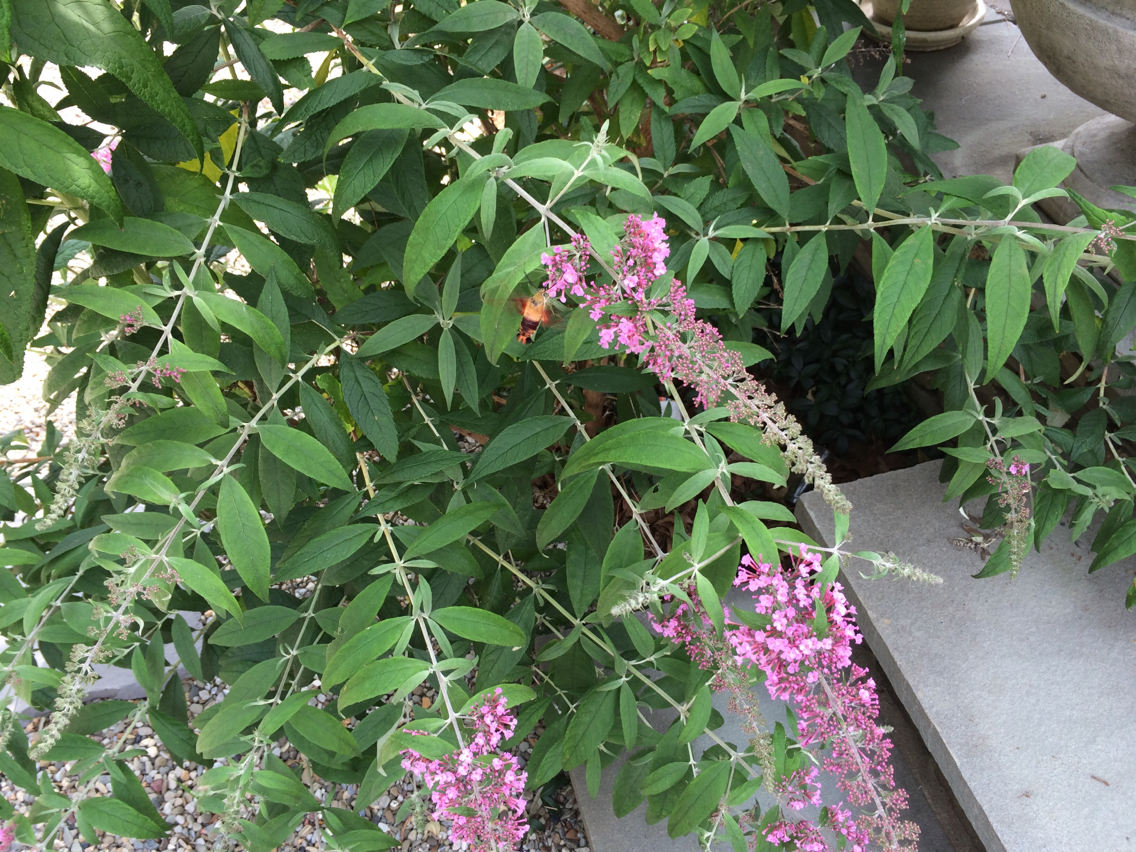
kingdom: Animalia
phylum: Arthropoda
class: Insecta
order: Lepidoptera
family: Sphingidae
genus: Hemaris
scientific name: Hemaris thysbe
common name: Common clear-wing
